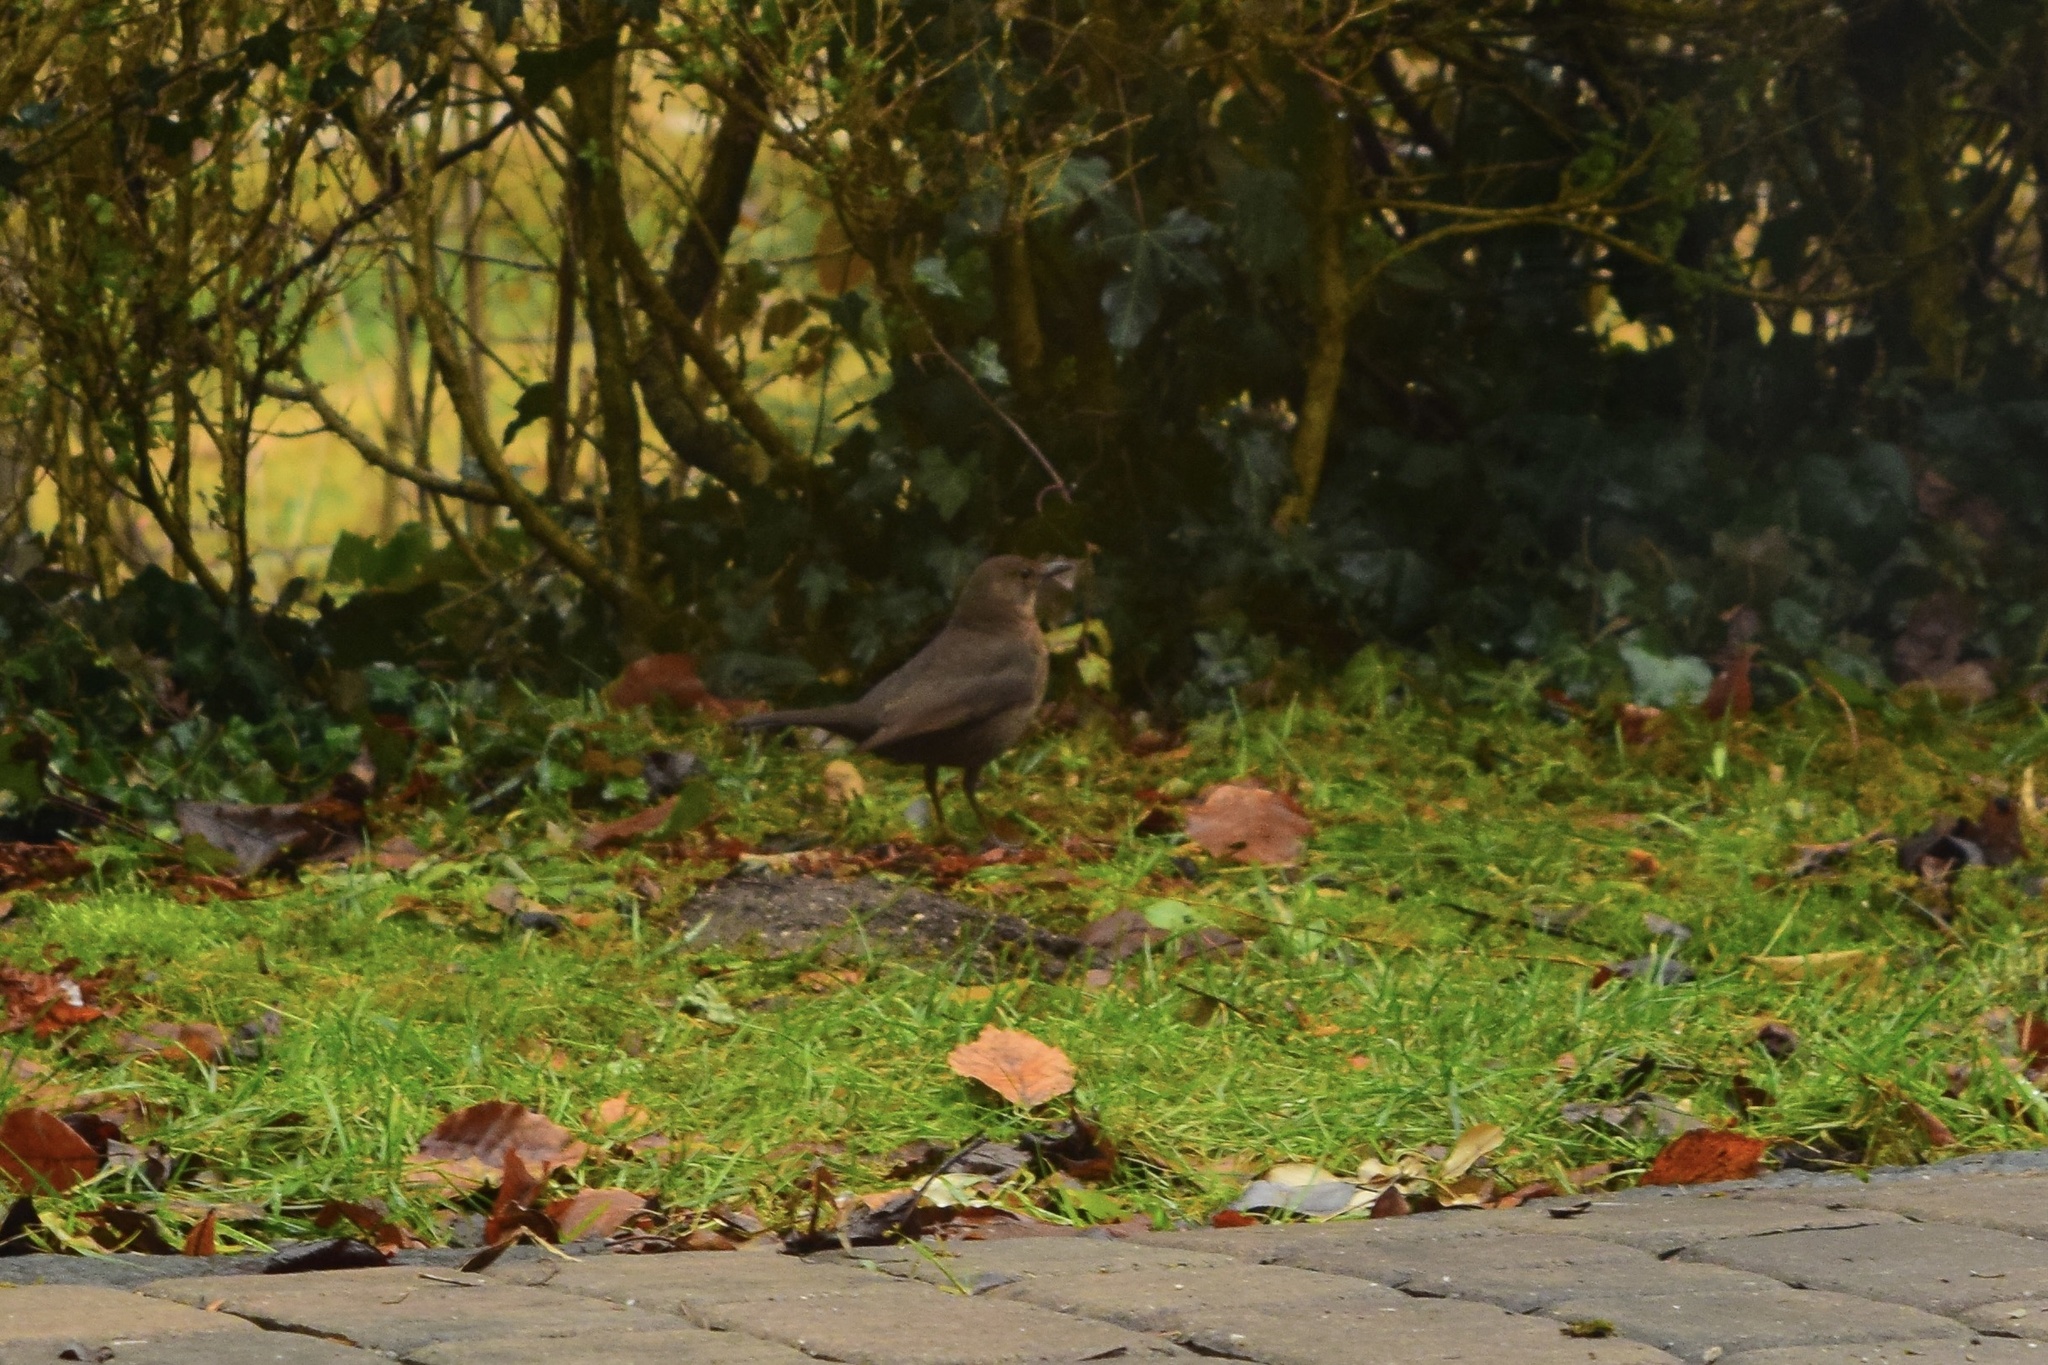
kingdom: Animalia
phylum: Chordata
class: Aves
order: Passeriformes
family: Turdidae
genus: Turdus
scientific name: Turdus merula
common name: Common blackbird
